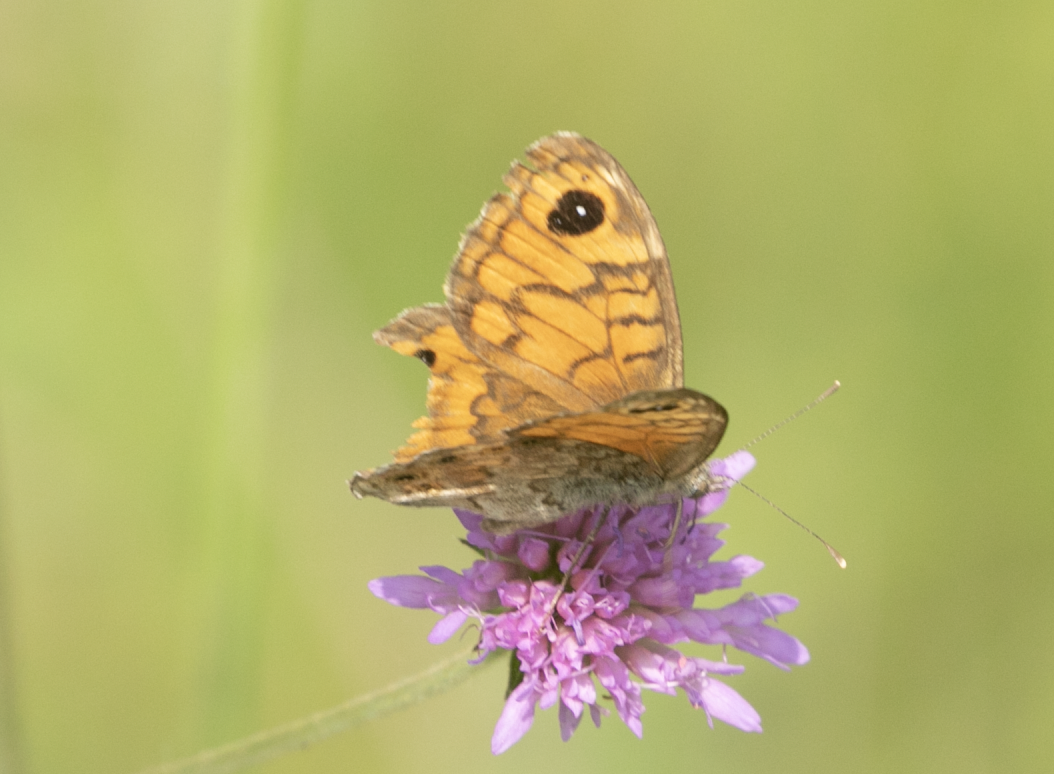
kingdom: Animalia
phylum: Arthropoda
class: Insecta
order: Lepidoptera
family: Nymphalidae
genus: Pararge
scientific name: Pararge Lasiommata megera
